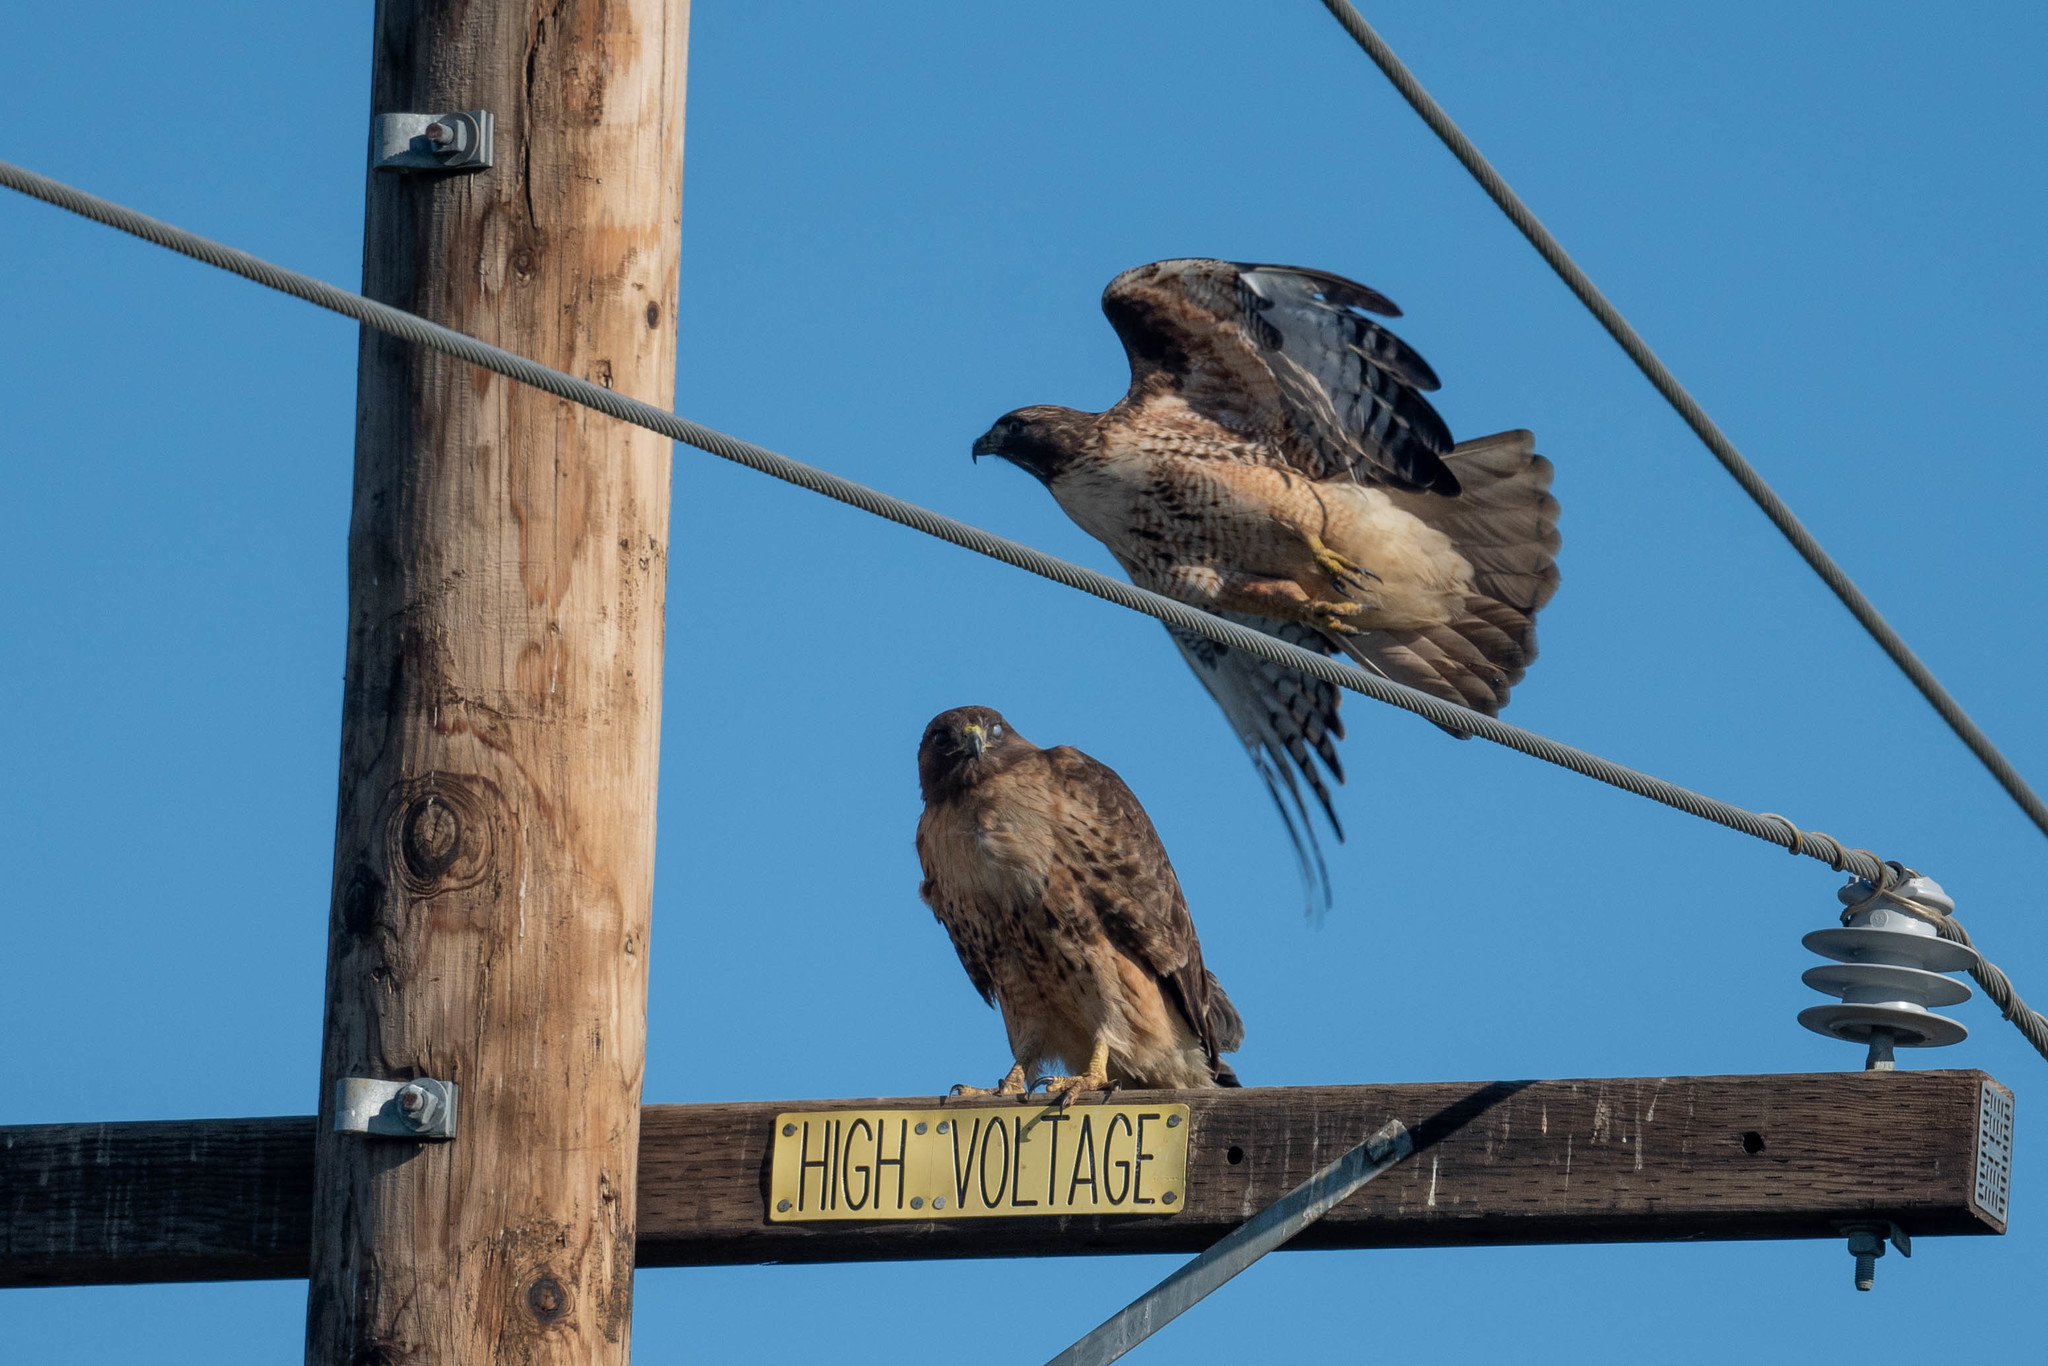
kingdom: Animalia
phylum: Chordata
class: Aves
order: Accipitriformes
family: Accipitridae
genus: Buteo
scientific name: Buteo jamaicensis
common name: Red-tailed hawk
